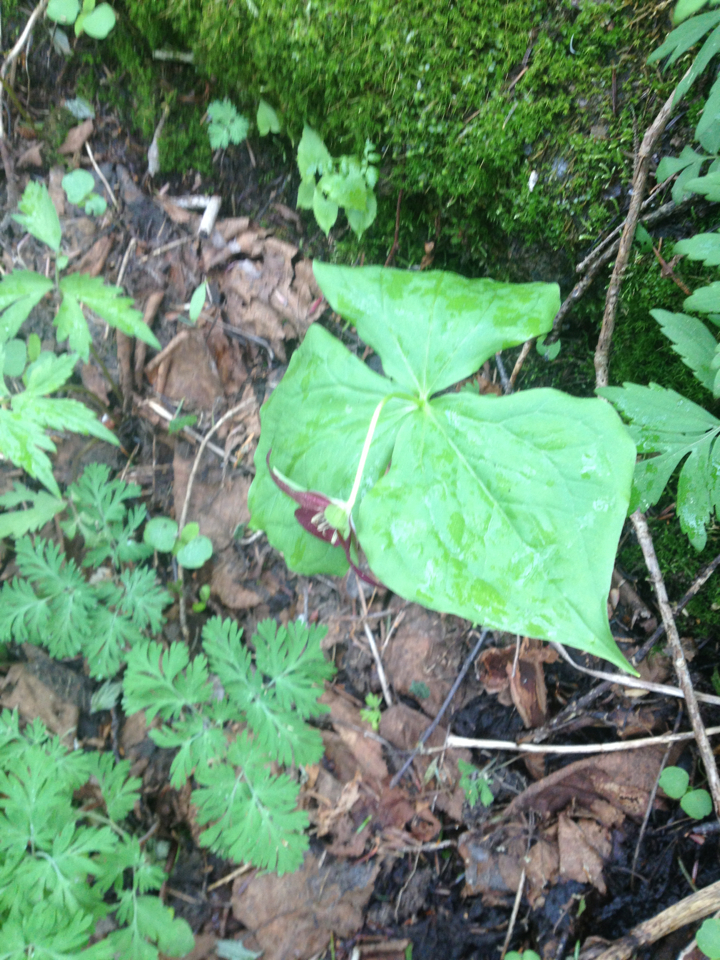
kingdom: Plantae
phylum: Tracheophyta
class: Liliopsida
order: Liliales
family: Melanthiaceae
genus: Trillium
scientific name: Trillium erectum
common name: Purple trillium
